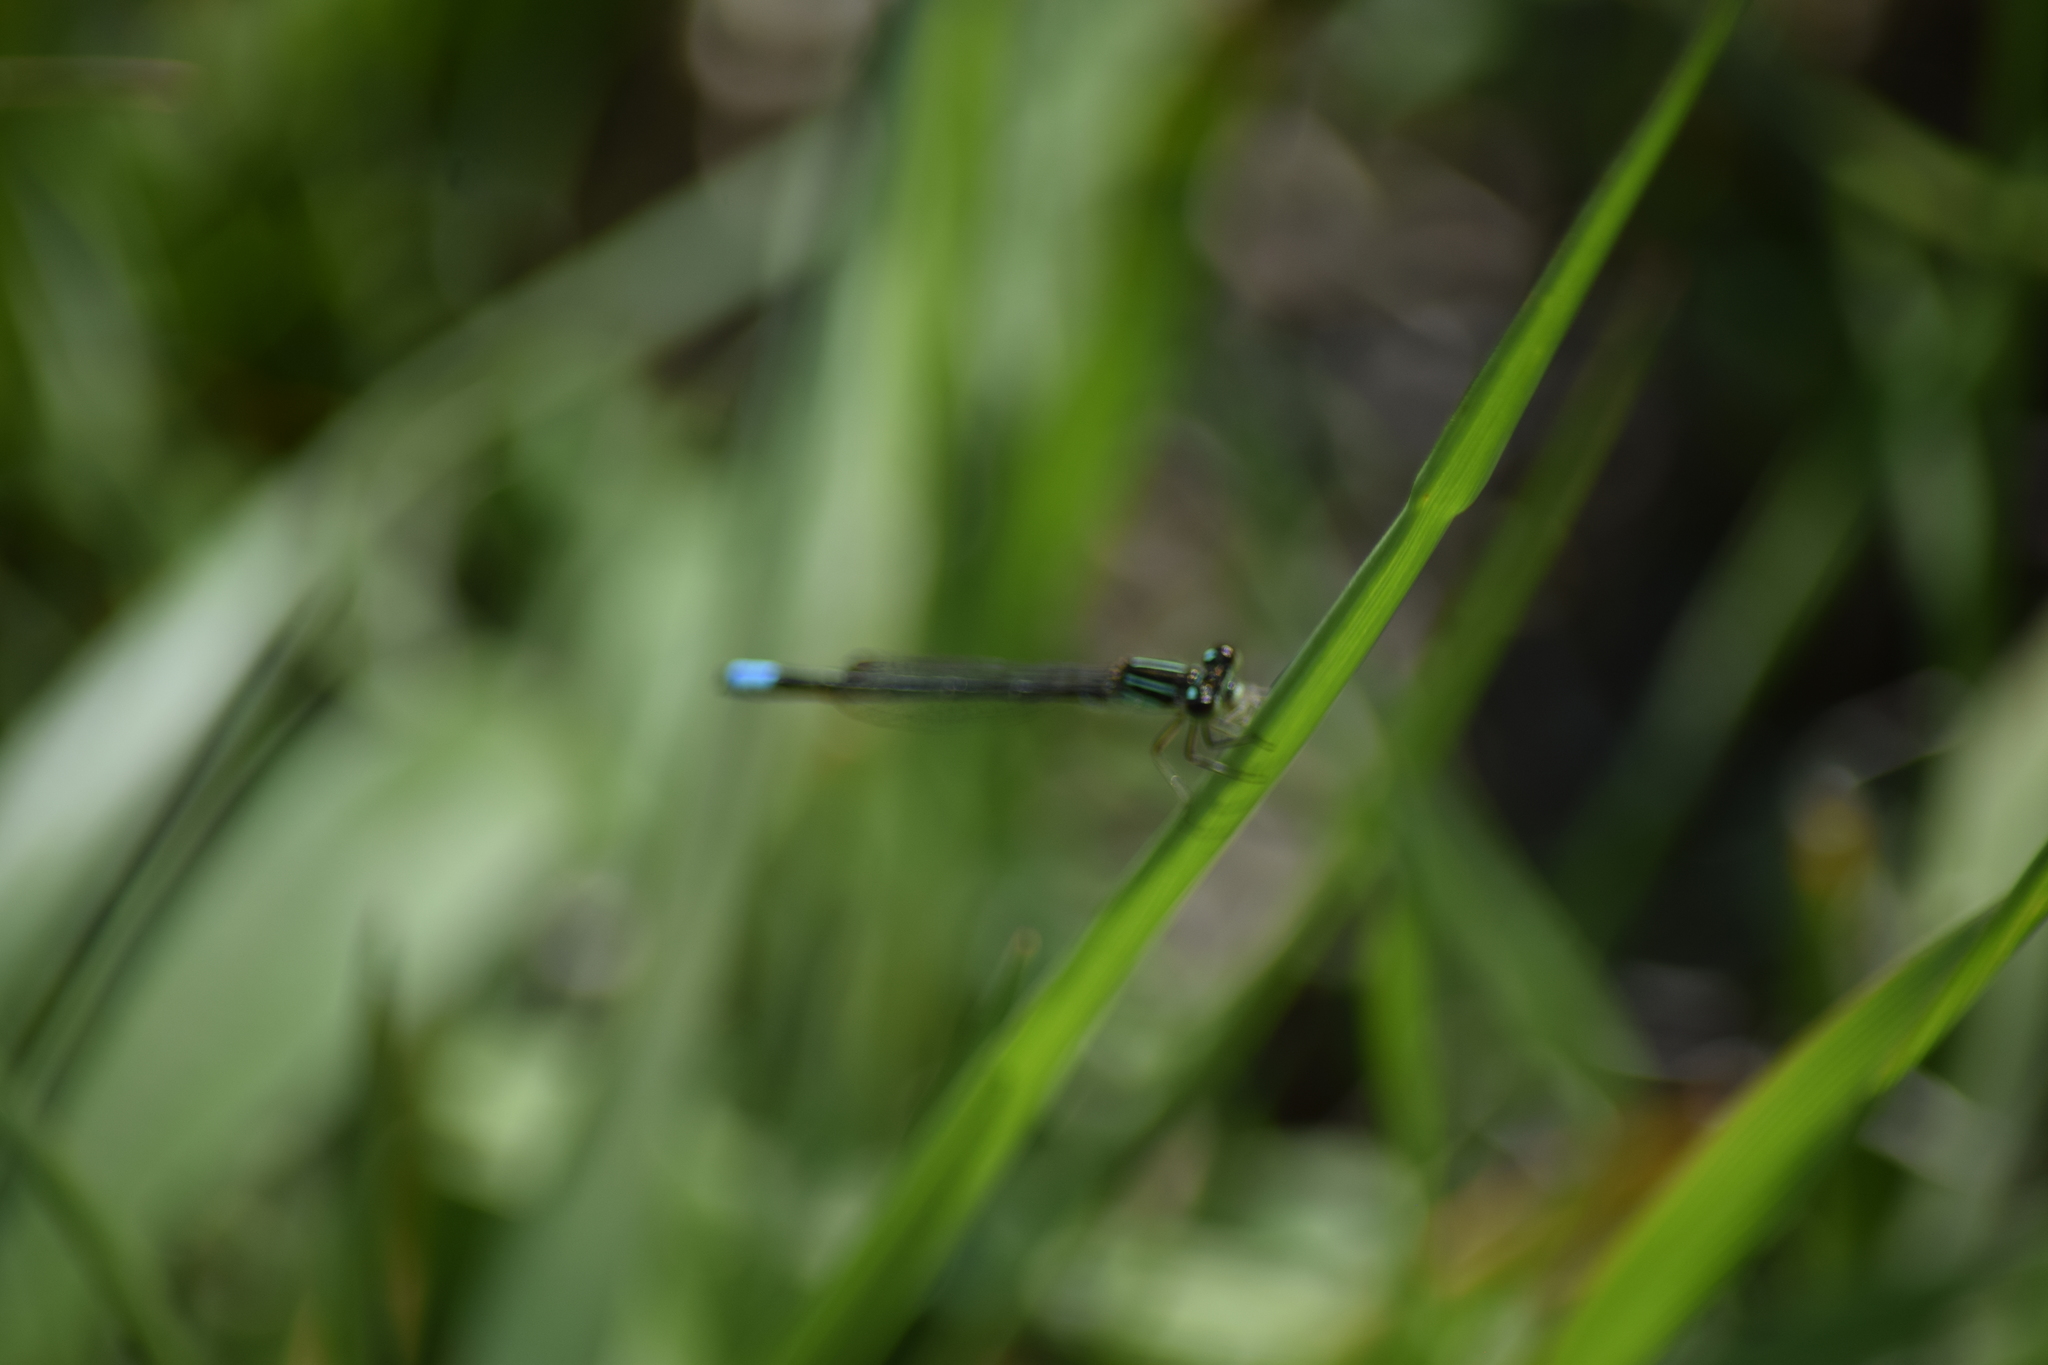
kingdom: Animalia
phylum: Arthropoda
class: Insecta
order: Odonata
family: Coenagrionidae
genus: Ischnura
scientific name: Ischnura verticalis
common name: Eastern forktail
